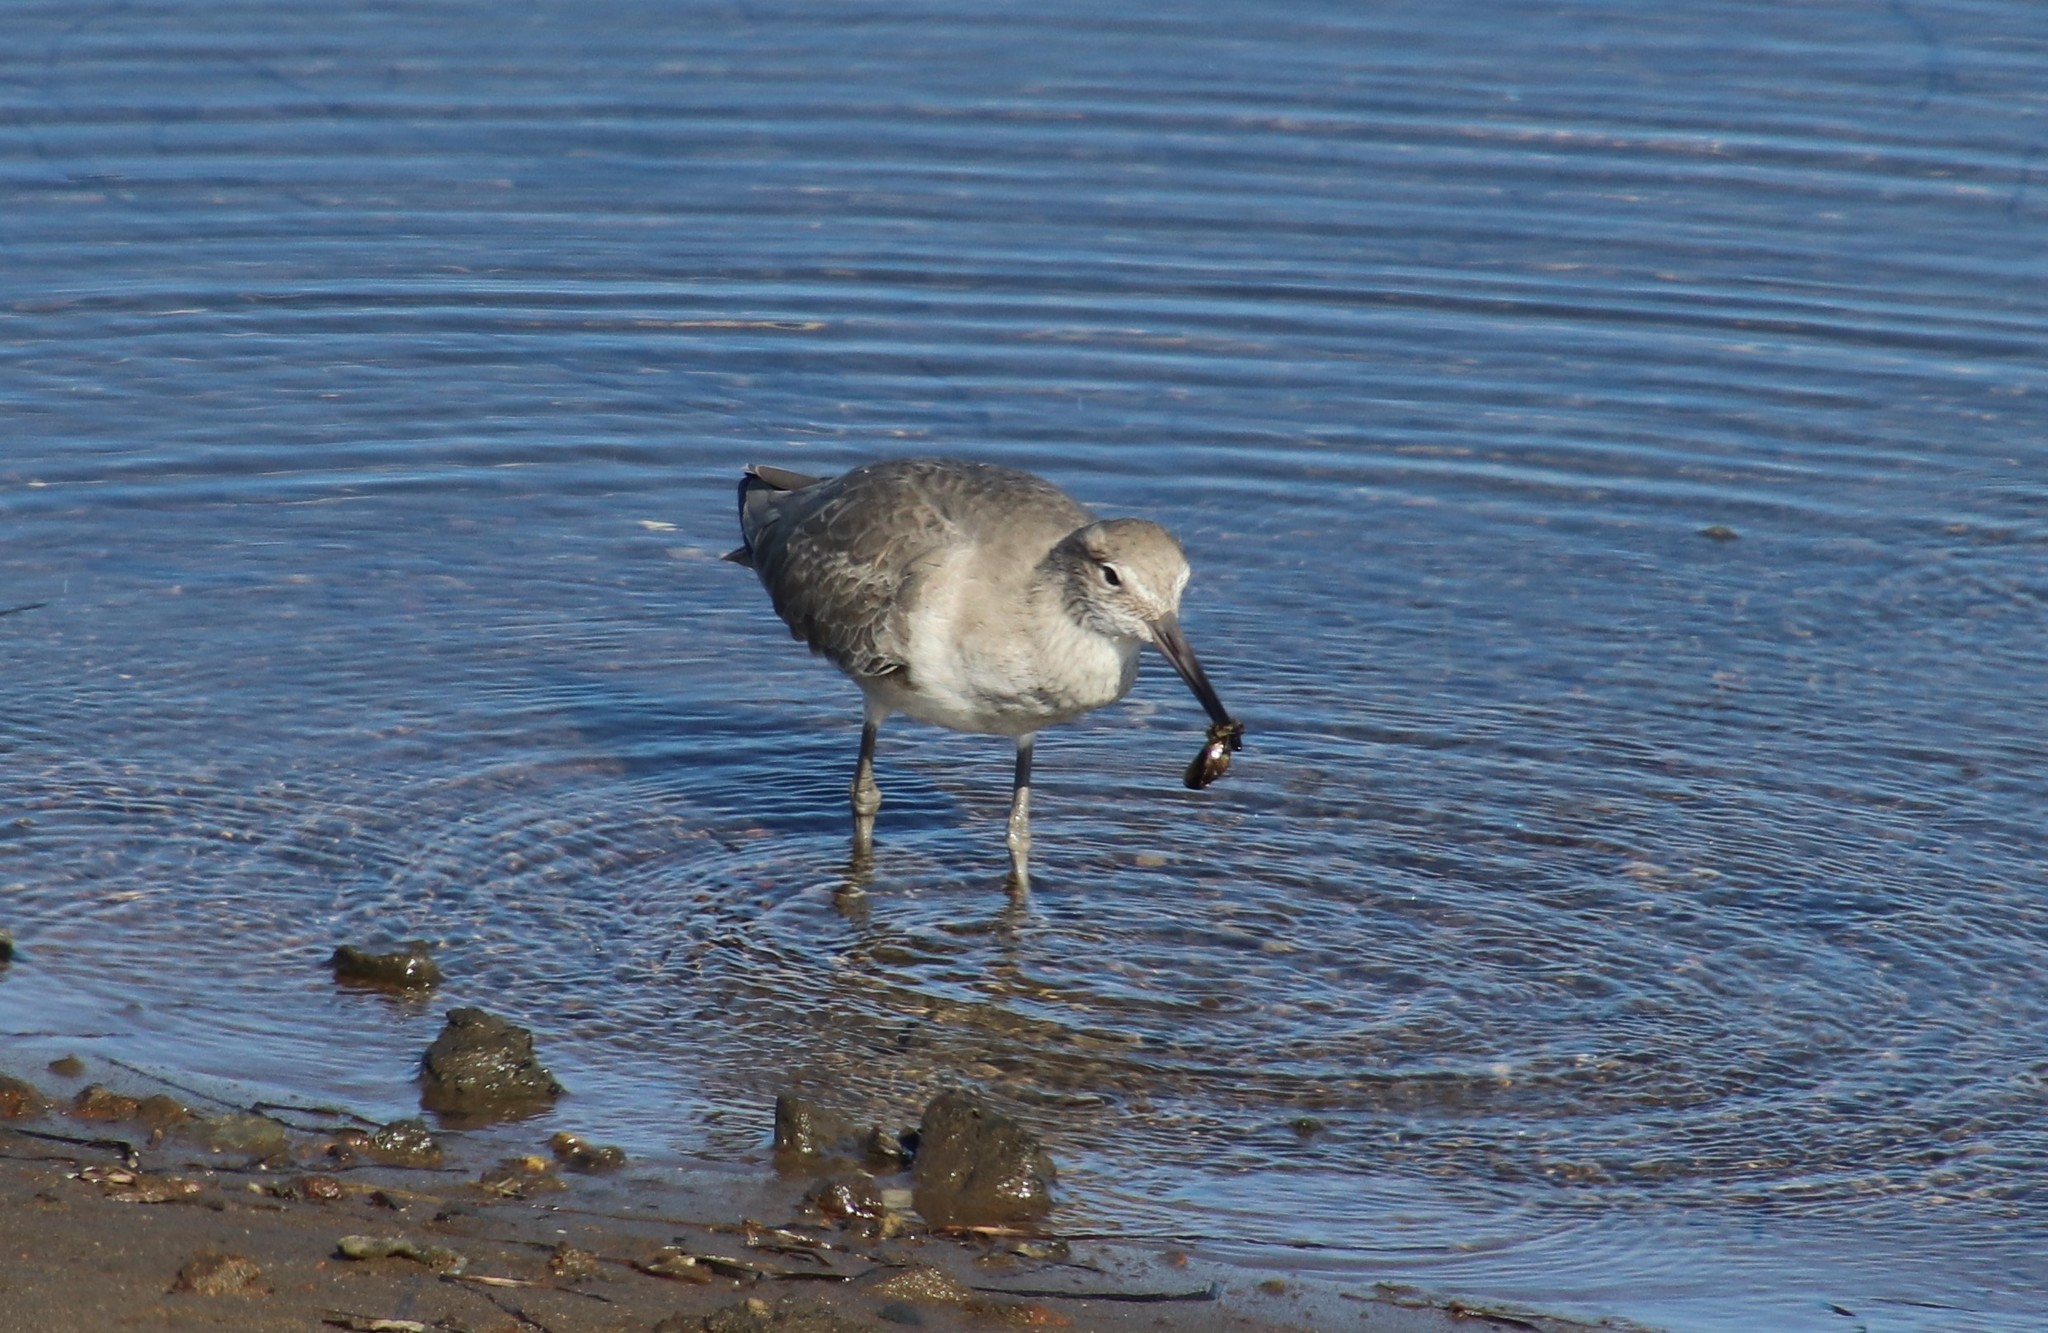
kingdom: Animalia
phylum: Chordata
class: Aves
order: Charadriiformes
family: Scolopacidae
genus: Tringa
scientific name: Tringa semipalmata
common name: Willet
